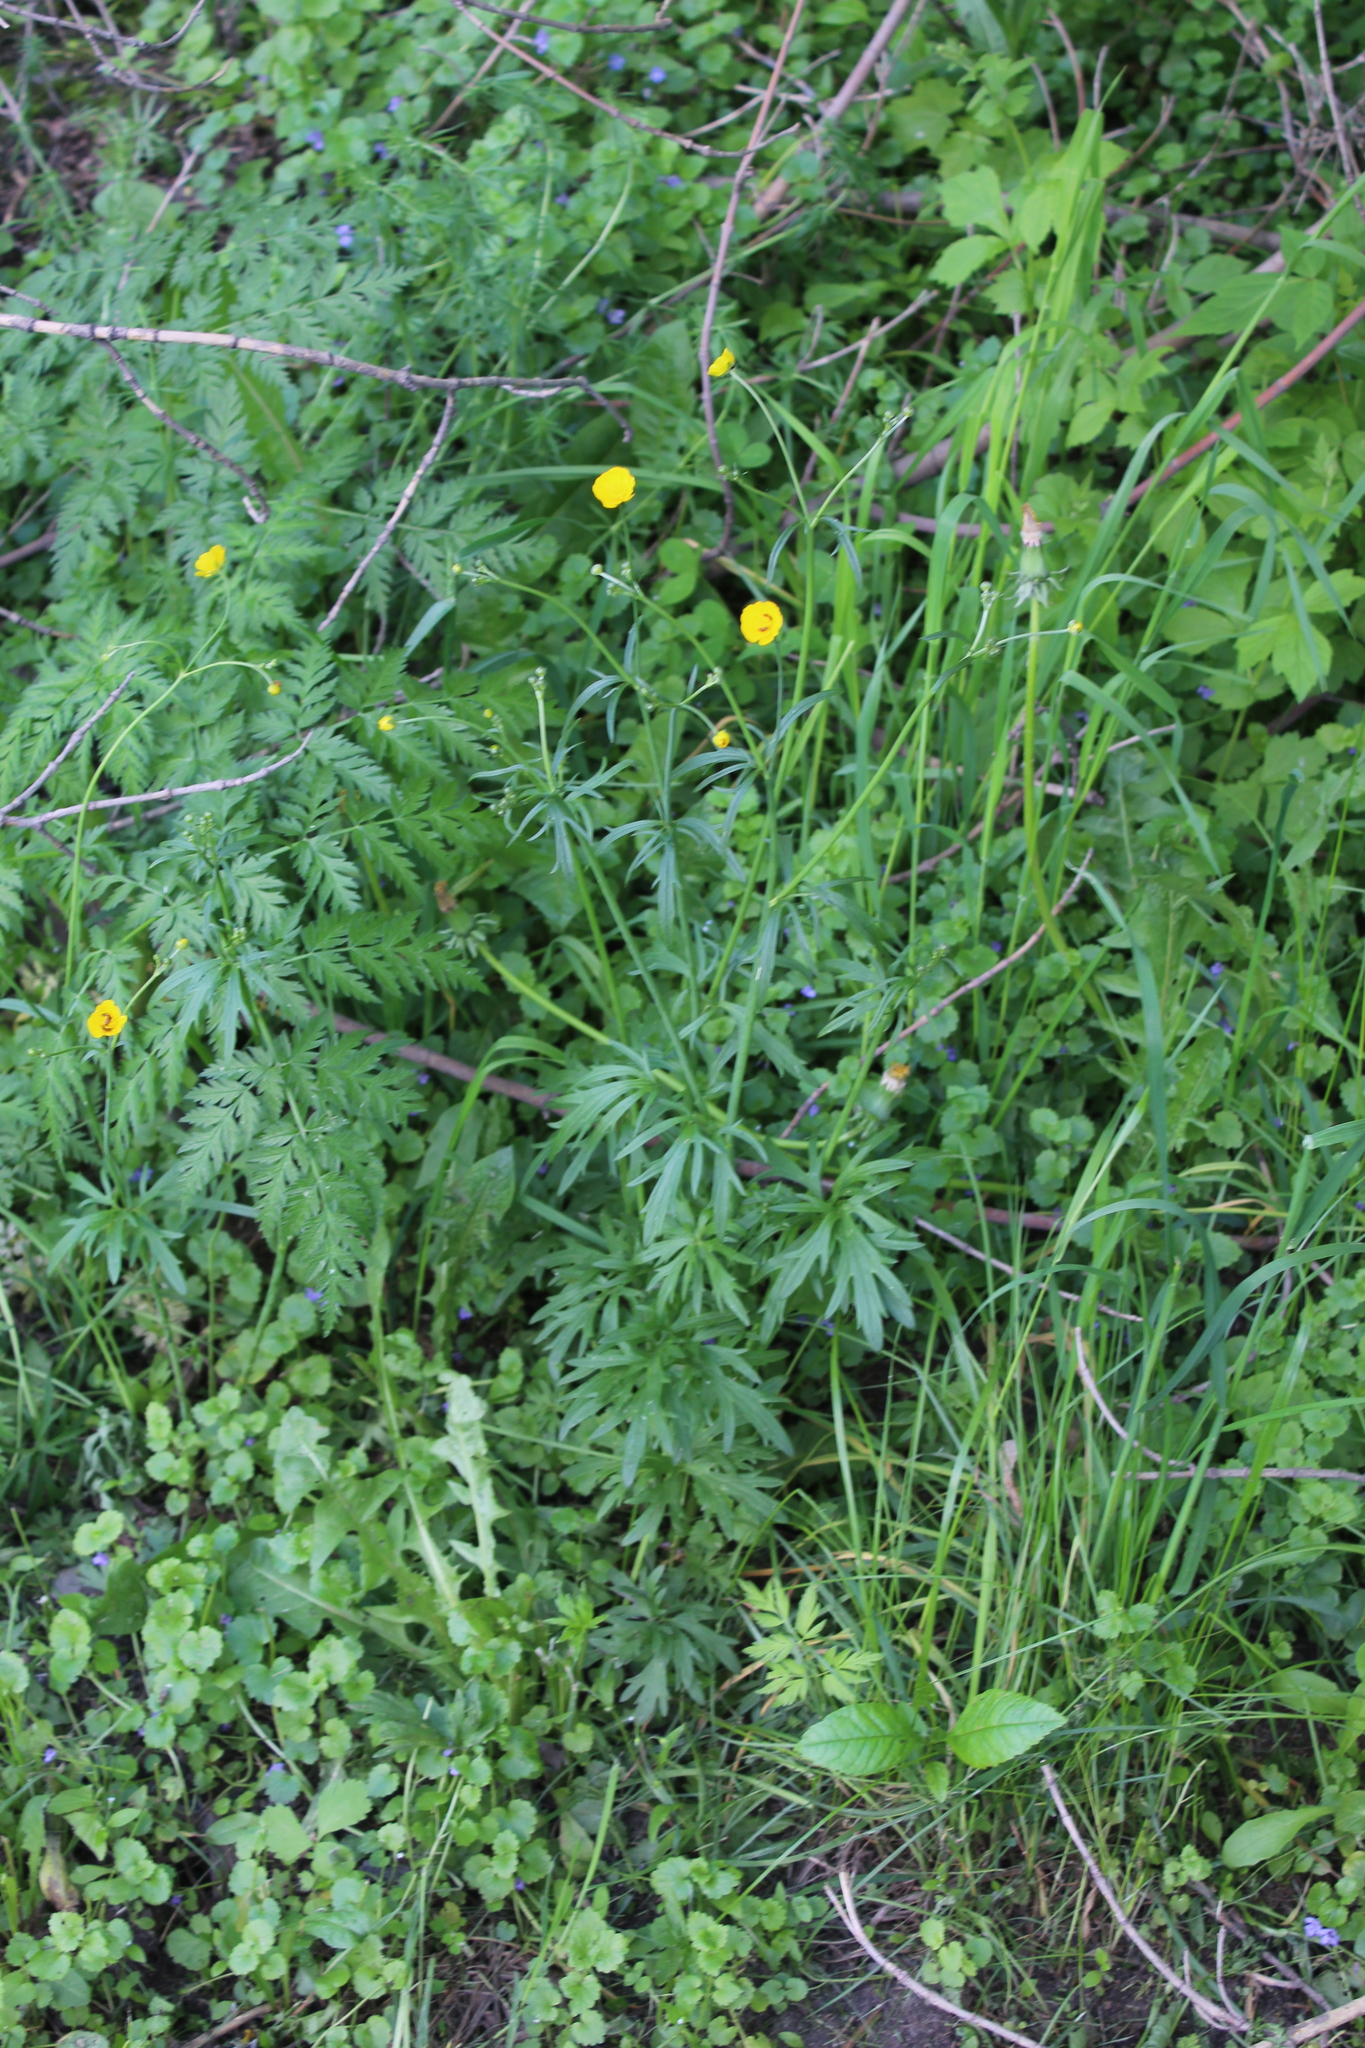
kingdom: Plantae
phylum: Tracheophyta
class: Magnoliopsida
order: Ranunculales
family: Ranunculaceae
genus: Ranunculus
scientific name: Ranunculus acris
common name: Meadow buttercup
